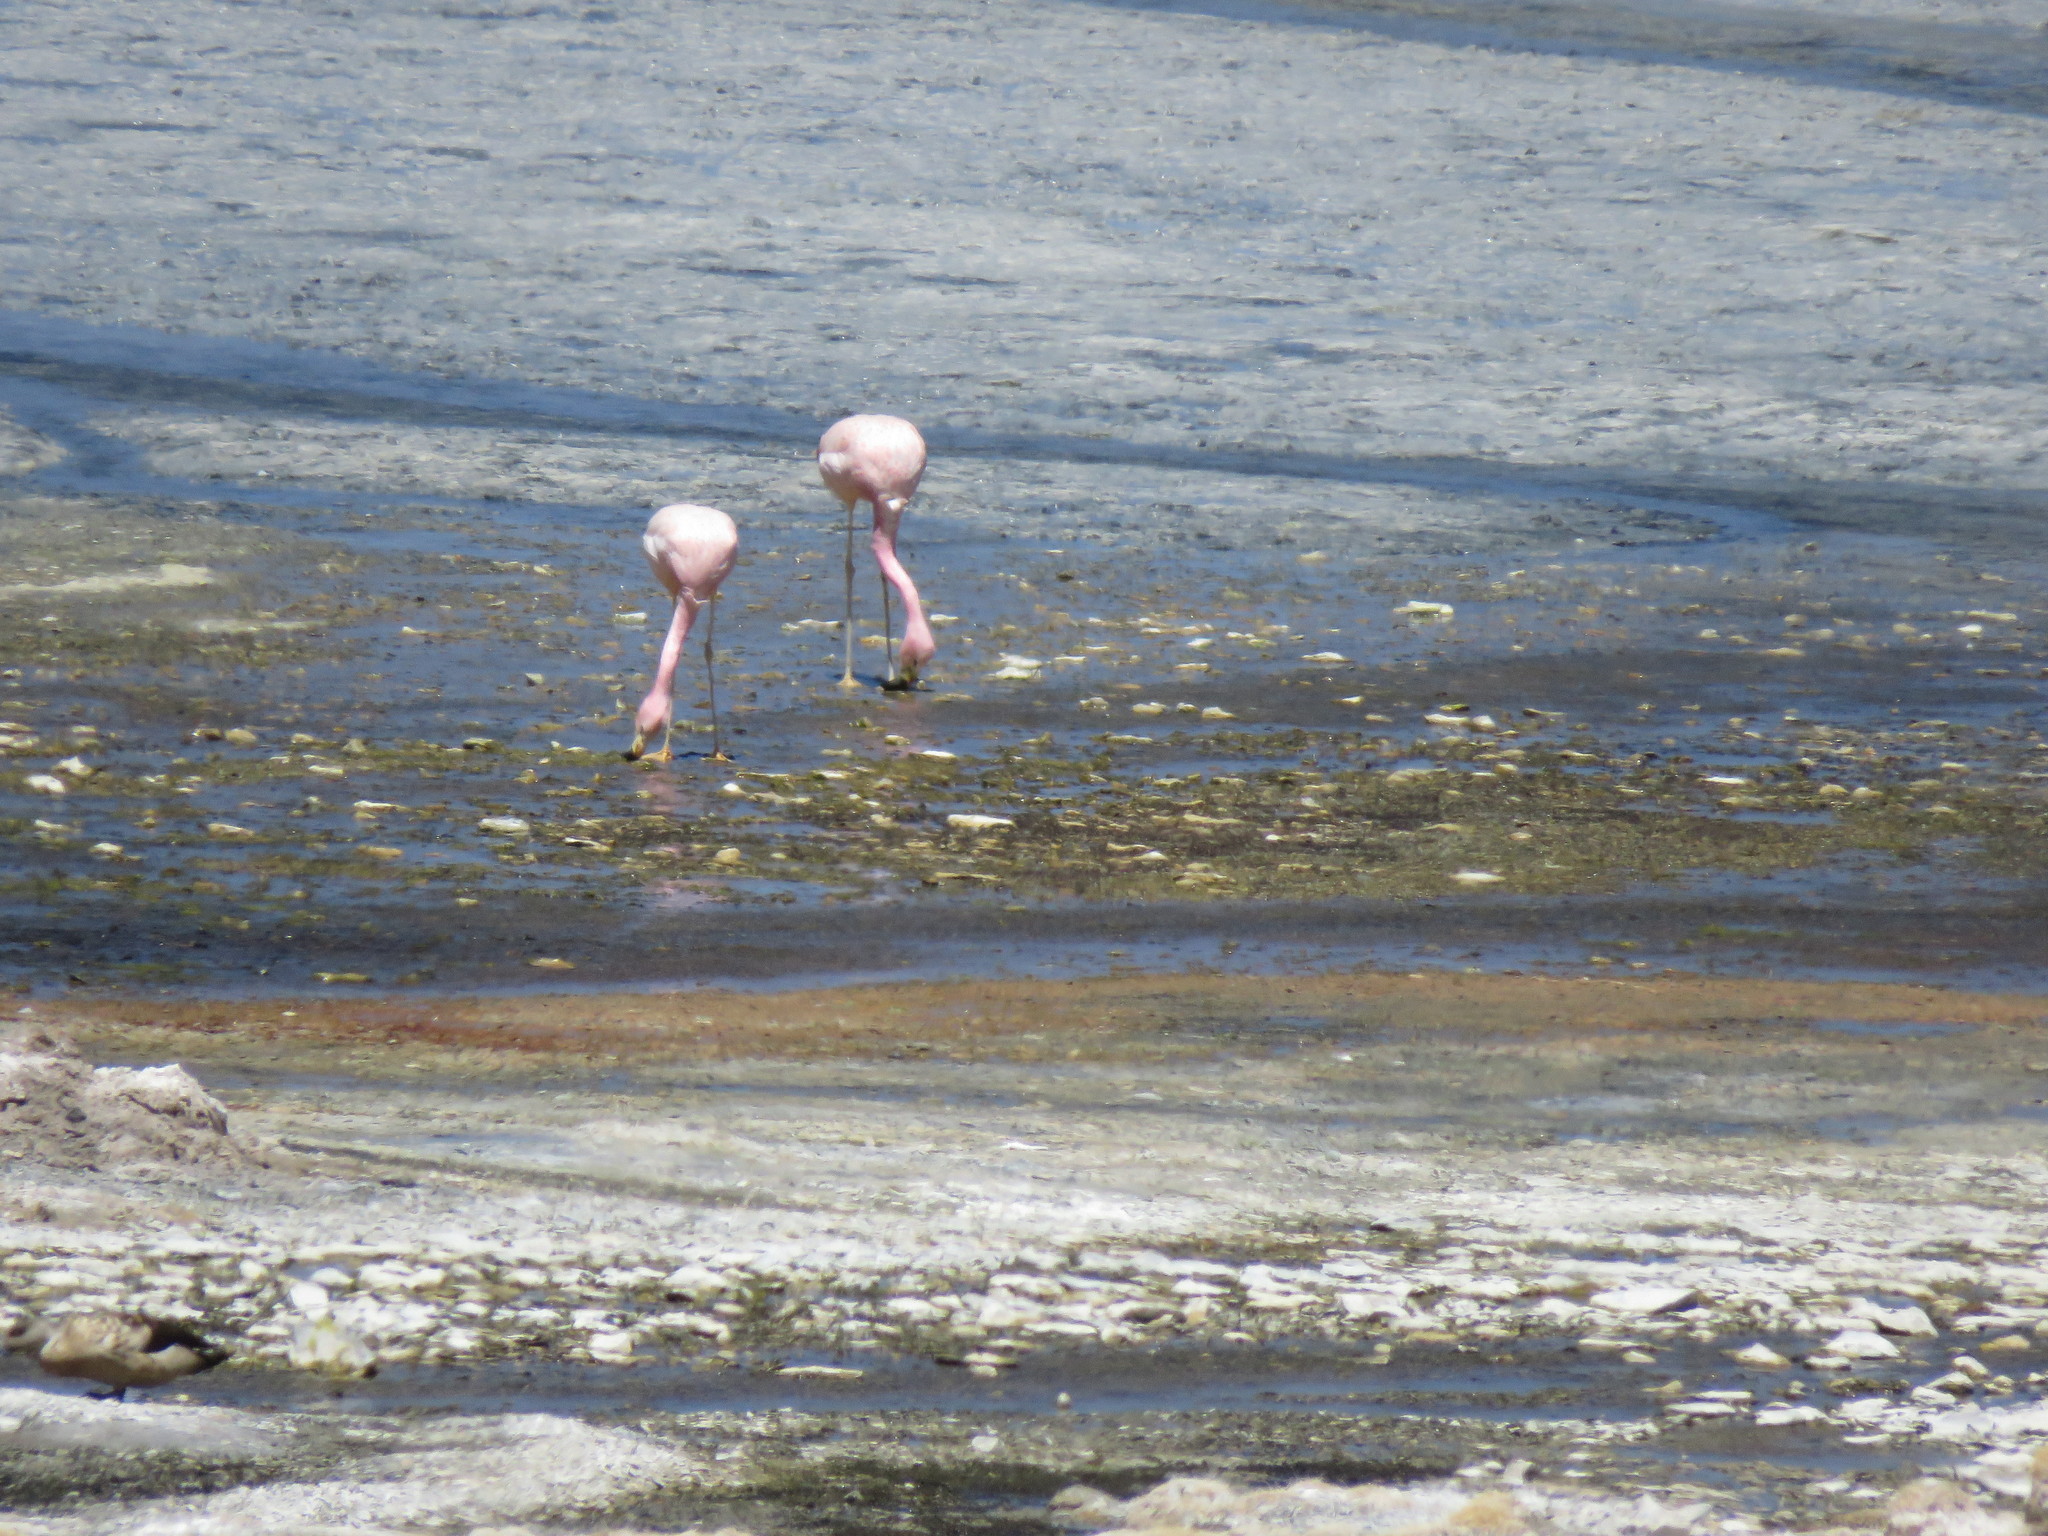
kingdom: Animalia
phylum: Chordata
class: Aves
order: Phoenicopteriformes
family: Phoenicopteridae
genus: Phoenicoparrus
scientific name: Phoenicoparrus andinus
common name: Andean flamingo
